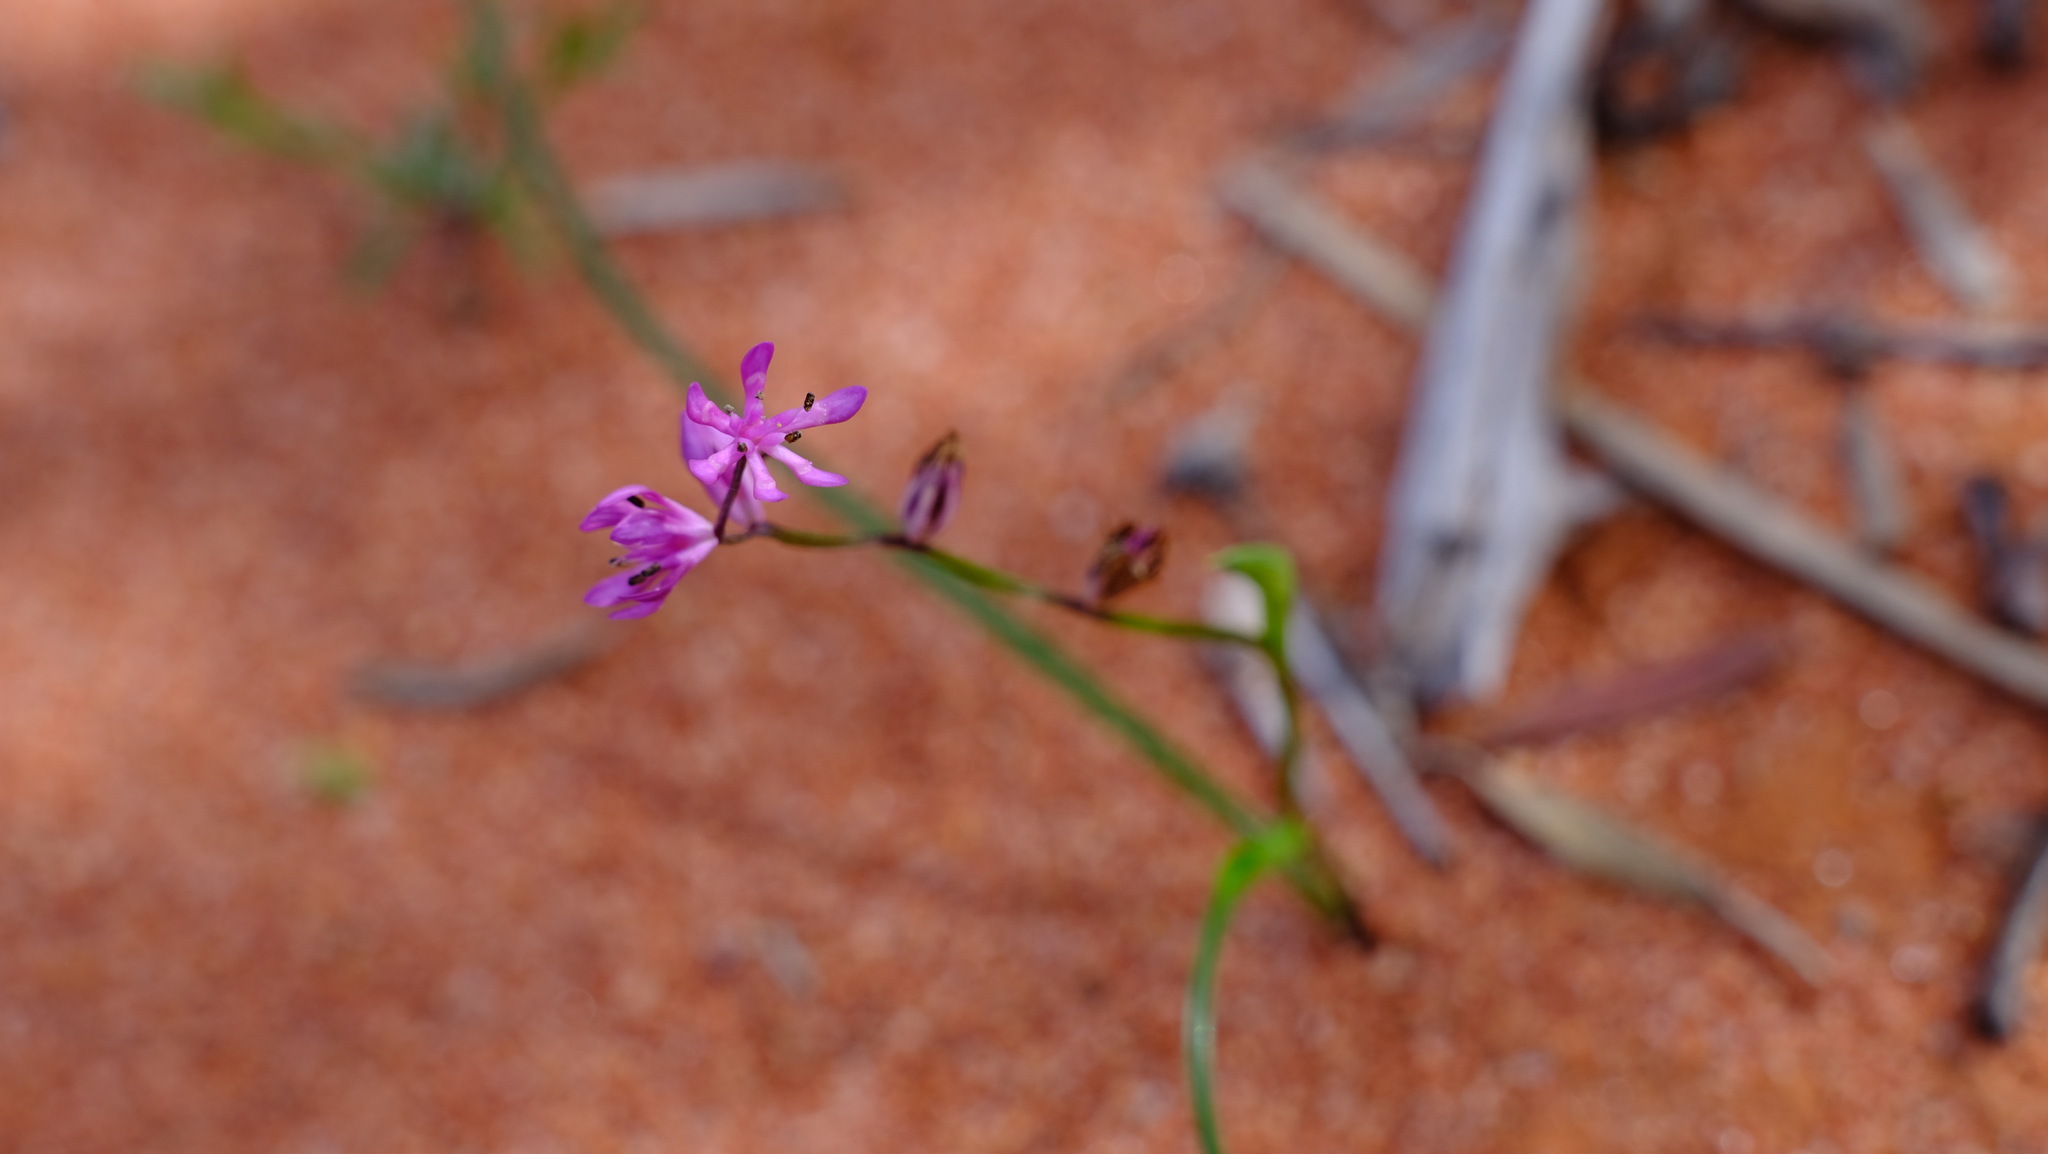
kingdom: Plantae
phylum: Tracheophyta
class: Liliopsida
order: Liliales
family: Colchicaceae
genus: Wurmbea
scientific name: Wurmbea inframediana
